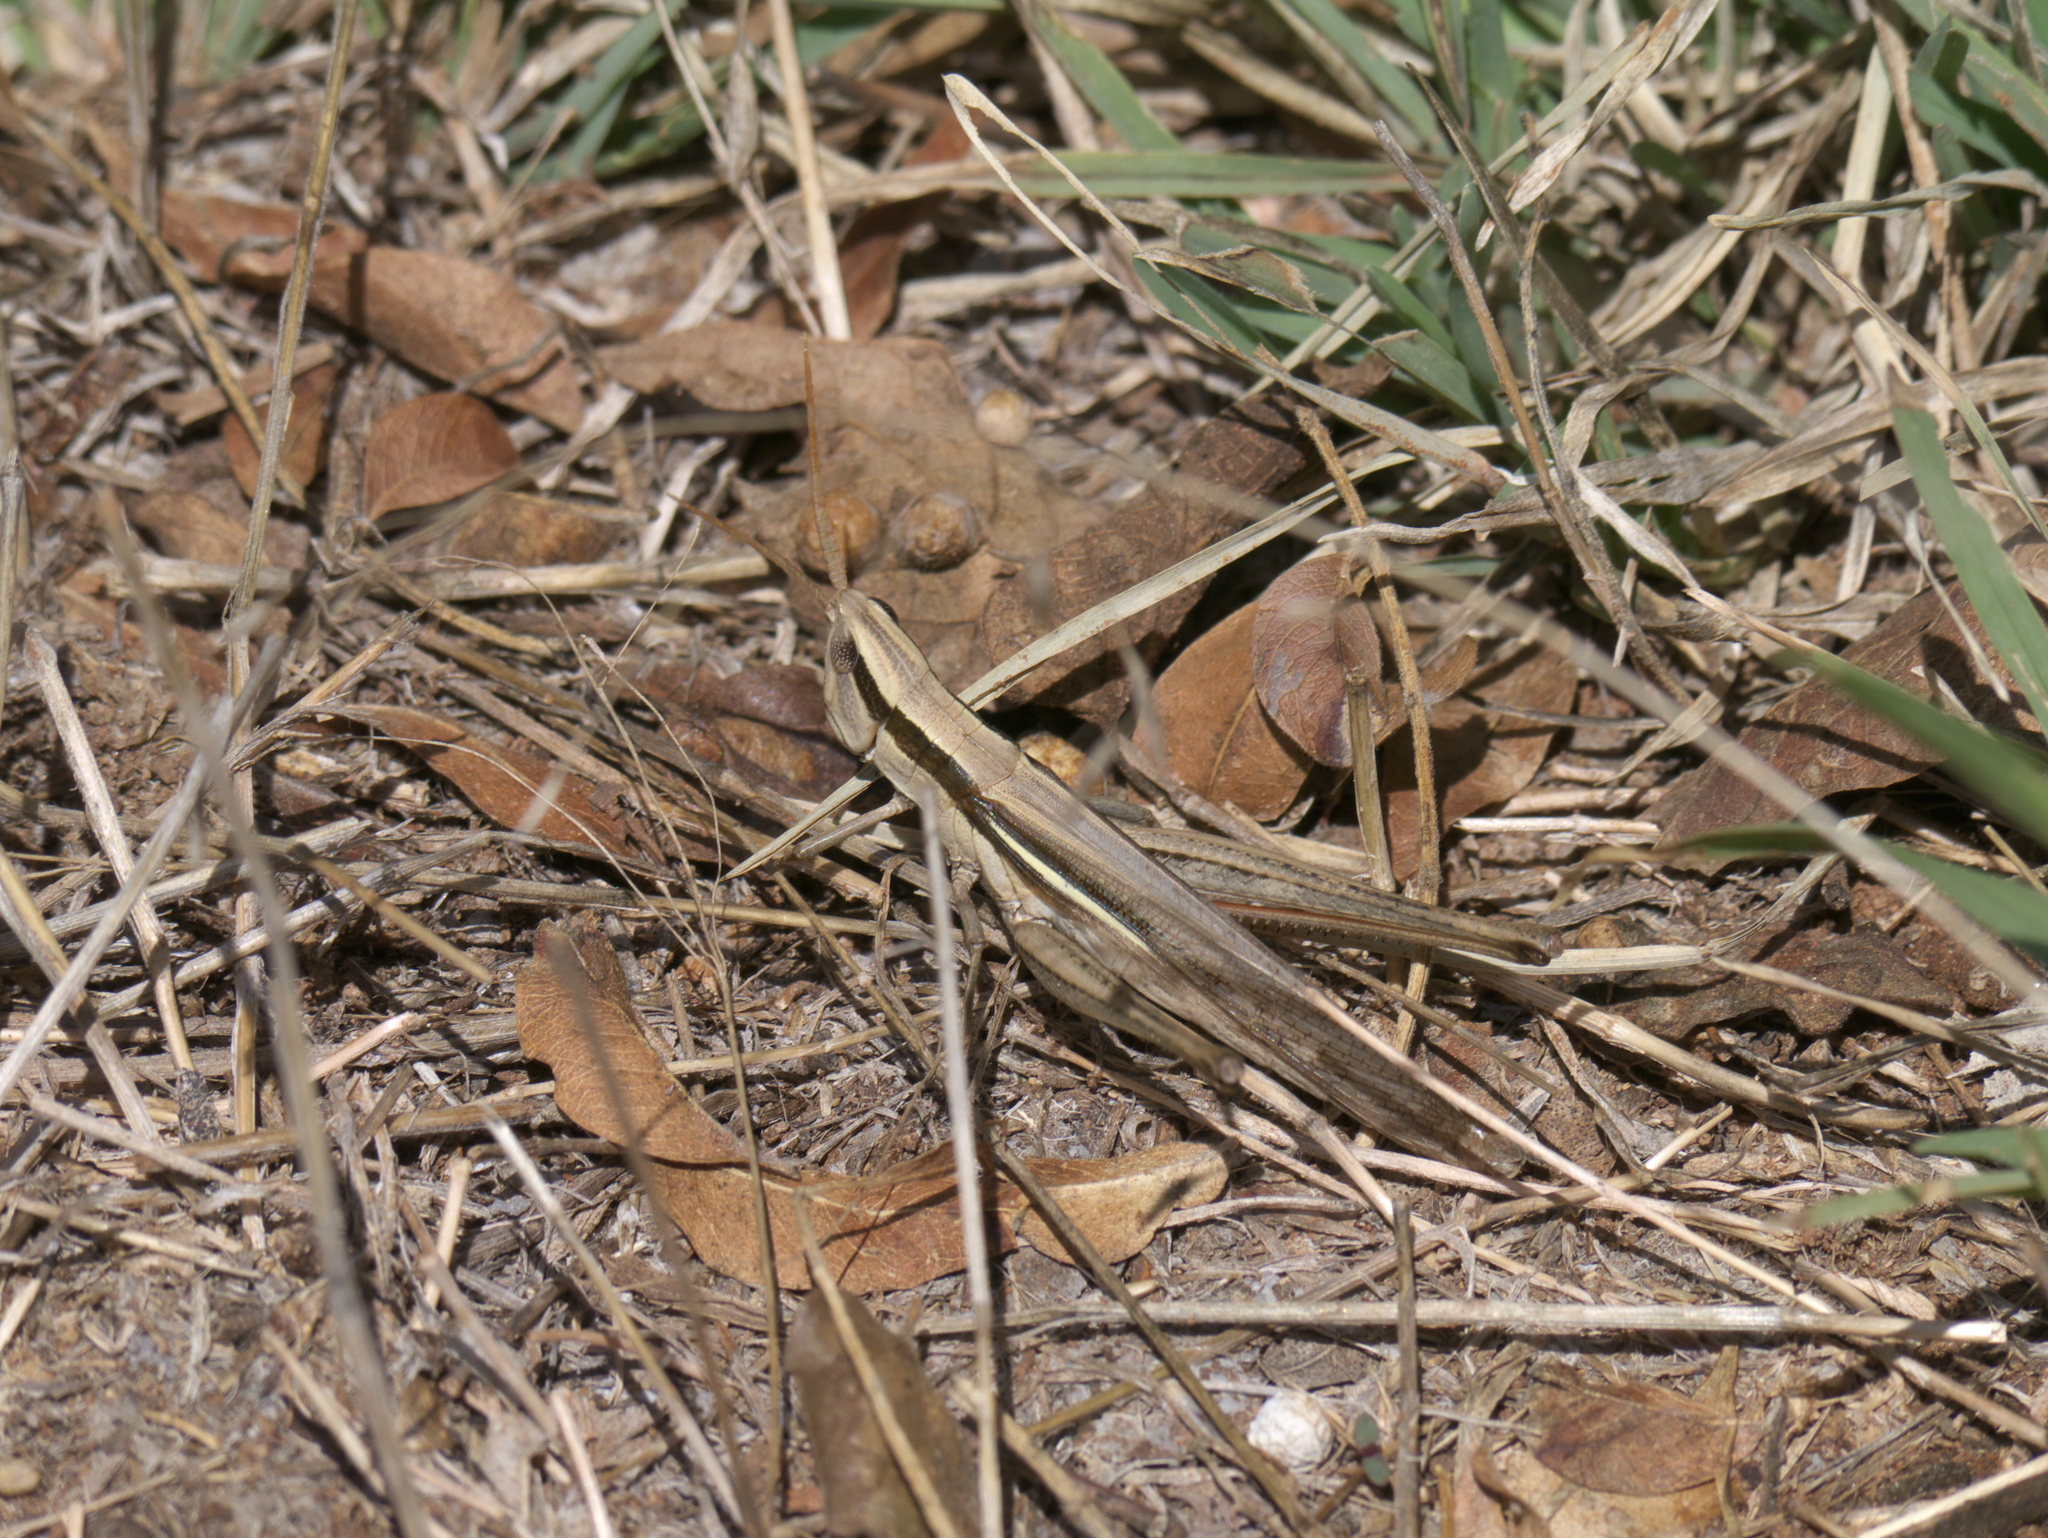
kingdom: Animalia
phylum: Arthropoda
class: Insecta
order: Orthoptera
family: Acrididae
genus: Mermiria
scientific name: Mermiria bivittata
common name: Two-striped mermiria grasshopper
